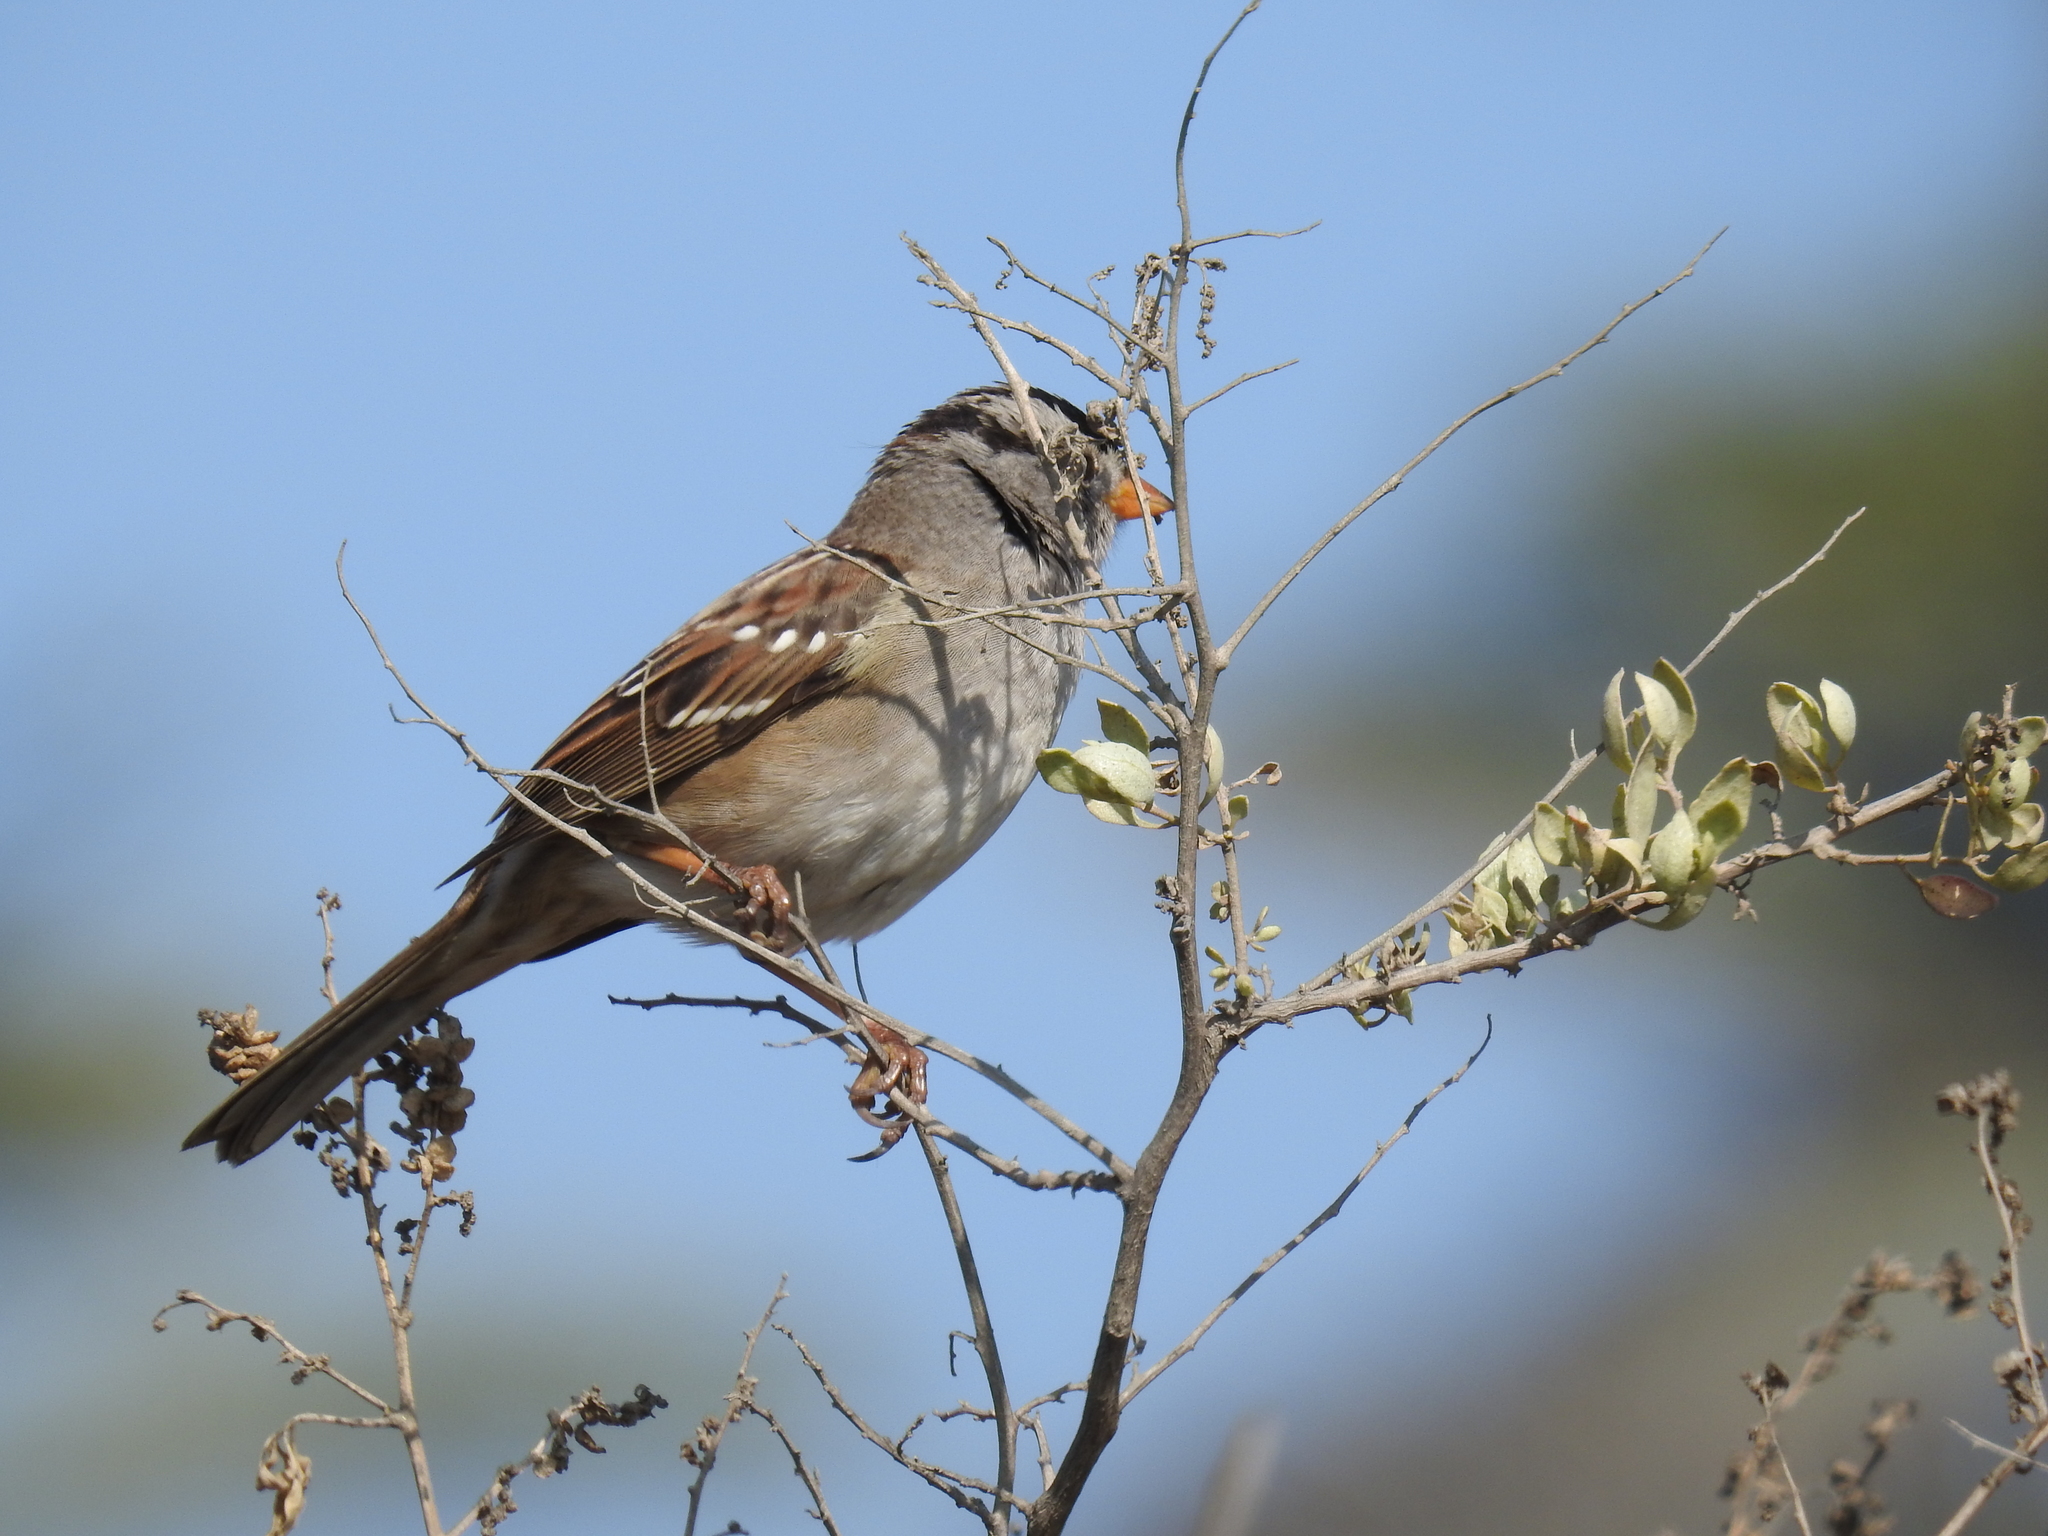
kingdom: Animalia
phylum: Chordata
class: Aves
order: Passeriformes
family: Passerellidae
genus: Zonotrichia
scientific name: Zonotrichia leucophrys
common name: White-crowned sparrow
